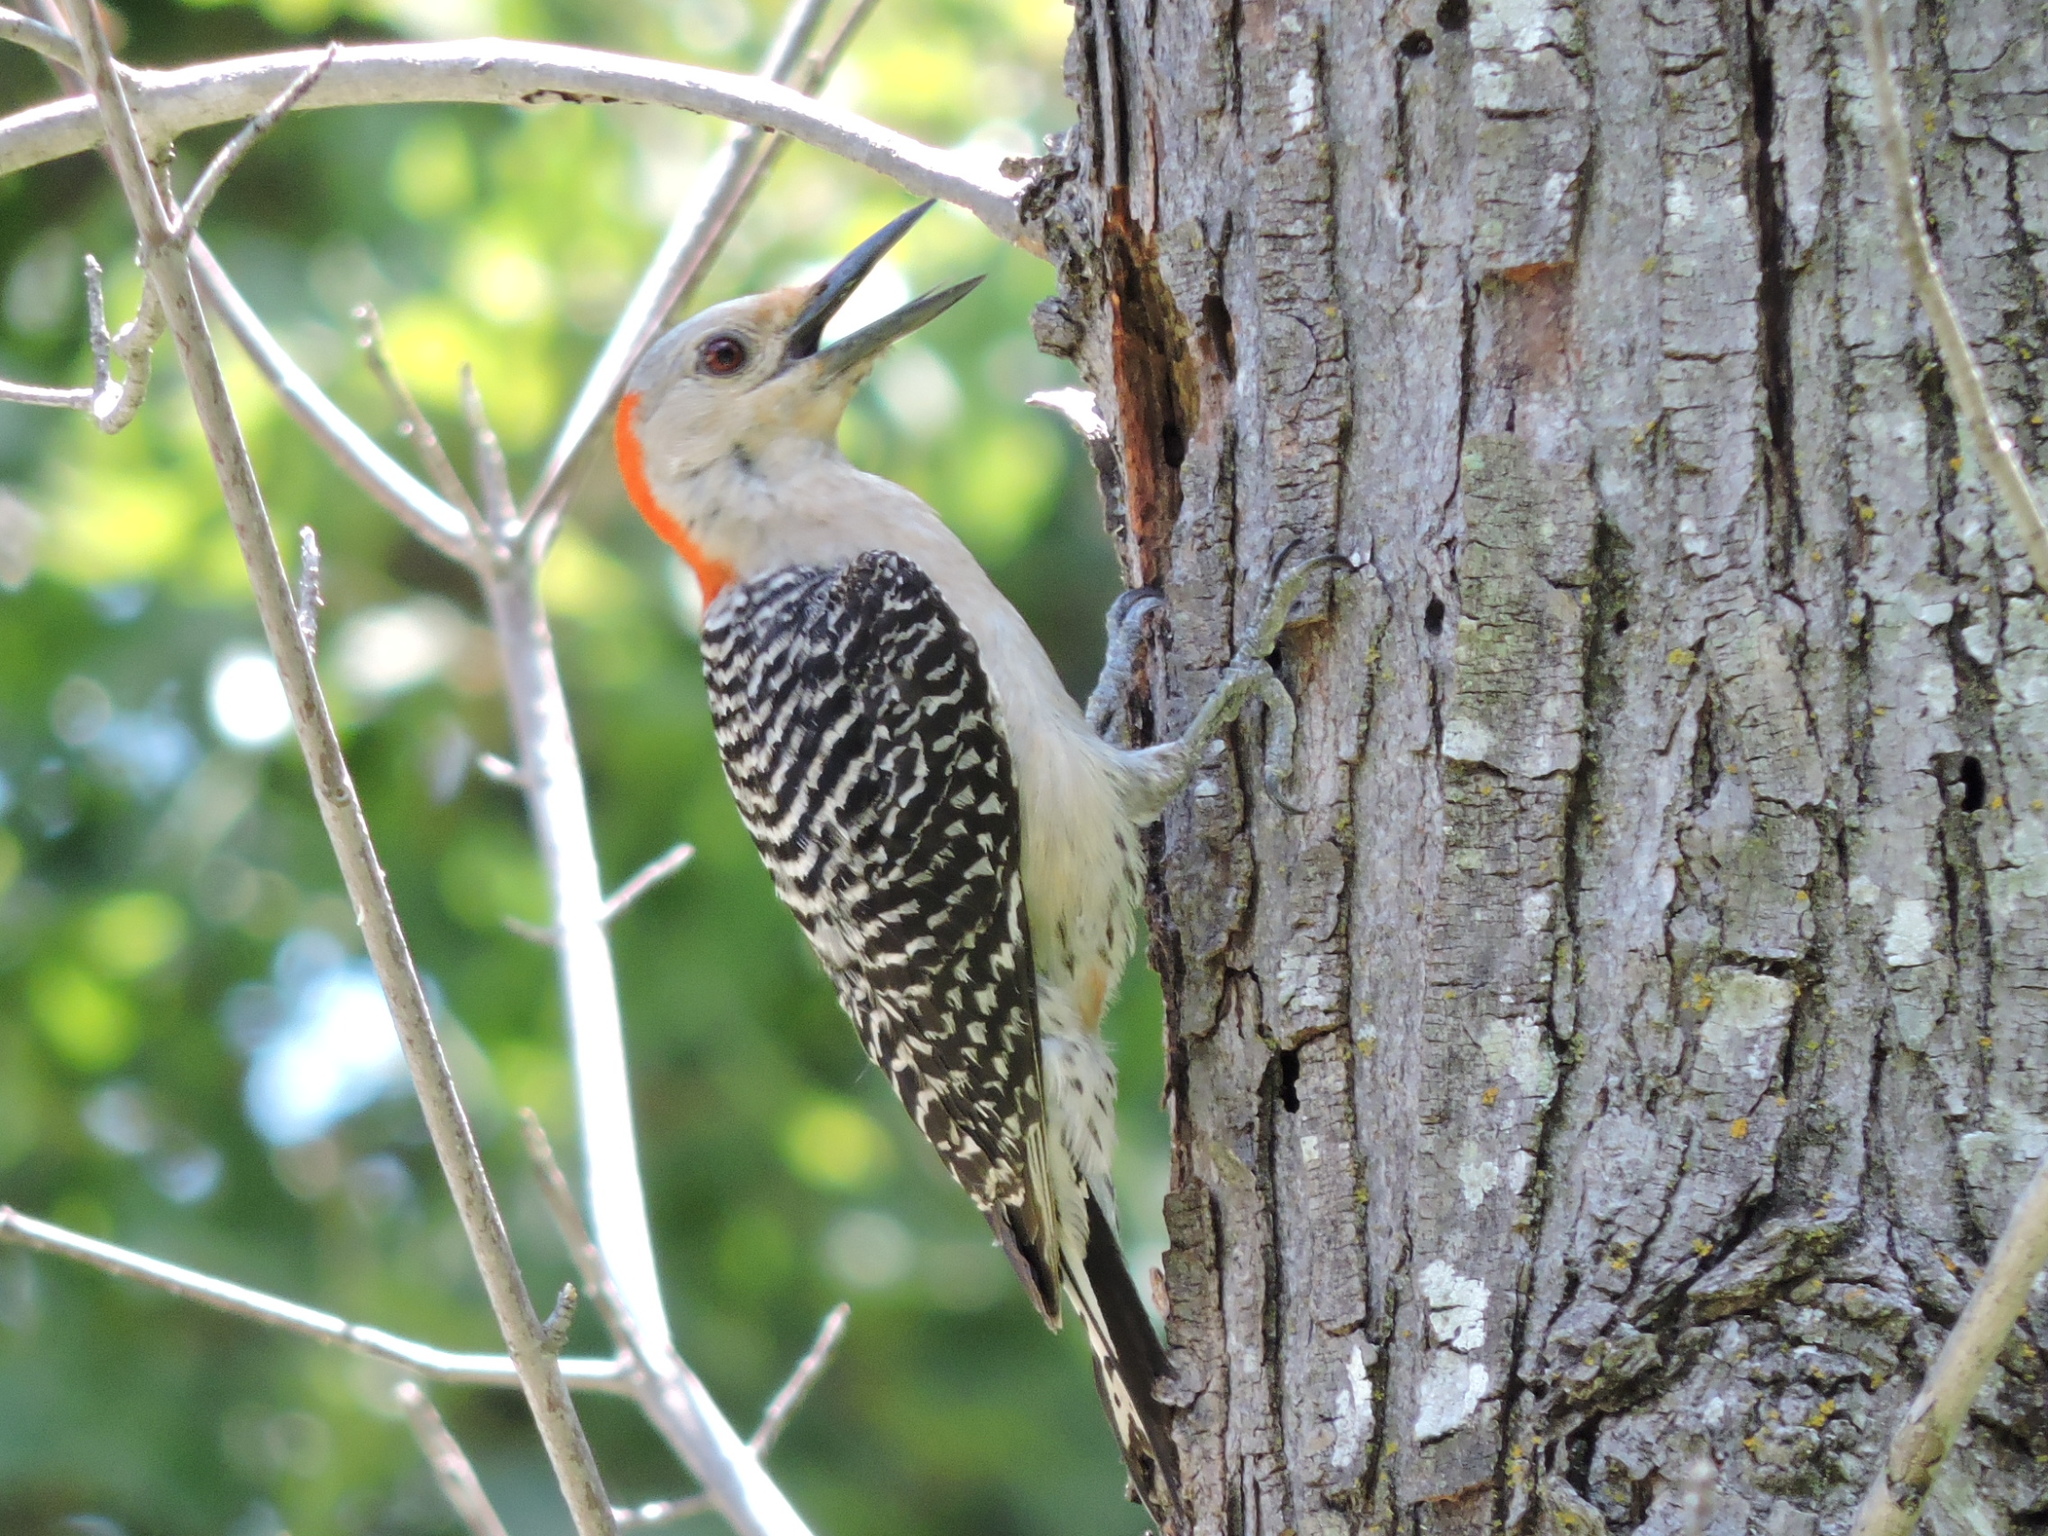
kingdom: Animalia
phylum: Chordata
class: Aves
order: Piciformes
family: Picidae
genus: Melanerpes
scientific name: Melanerpes carolinus
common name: Red-bellied woodpecker
